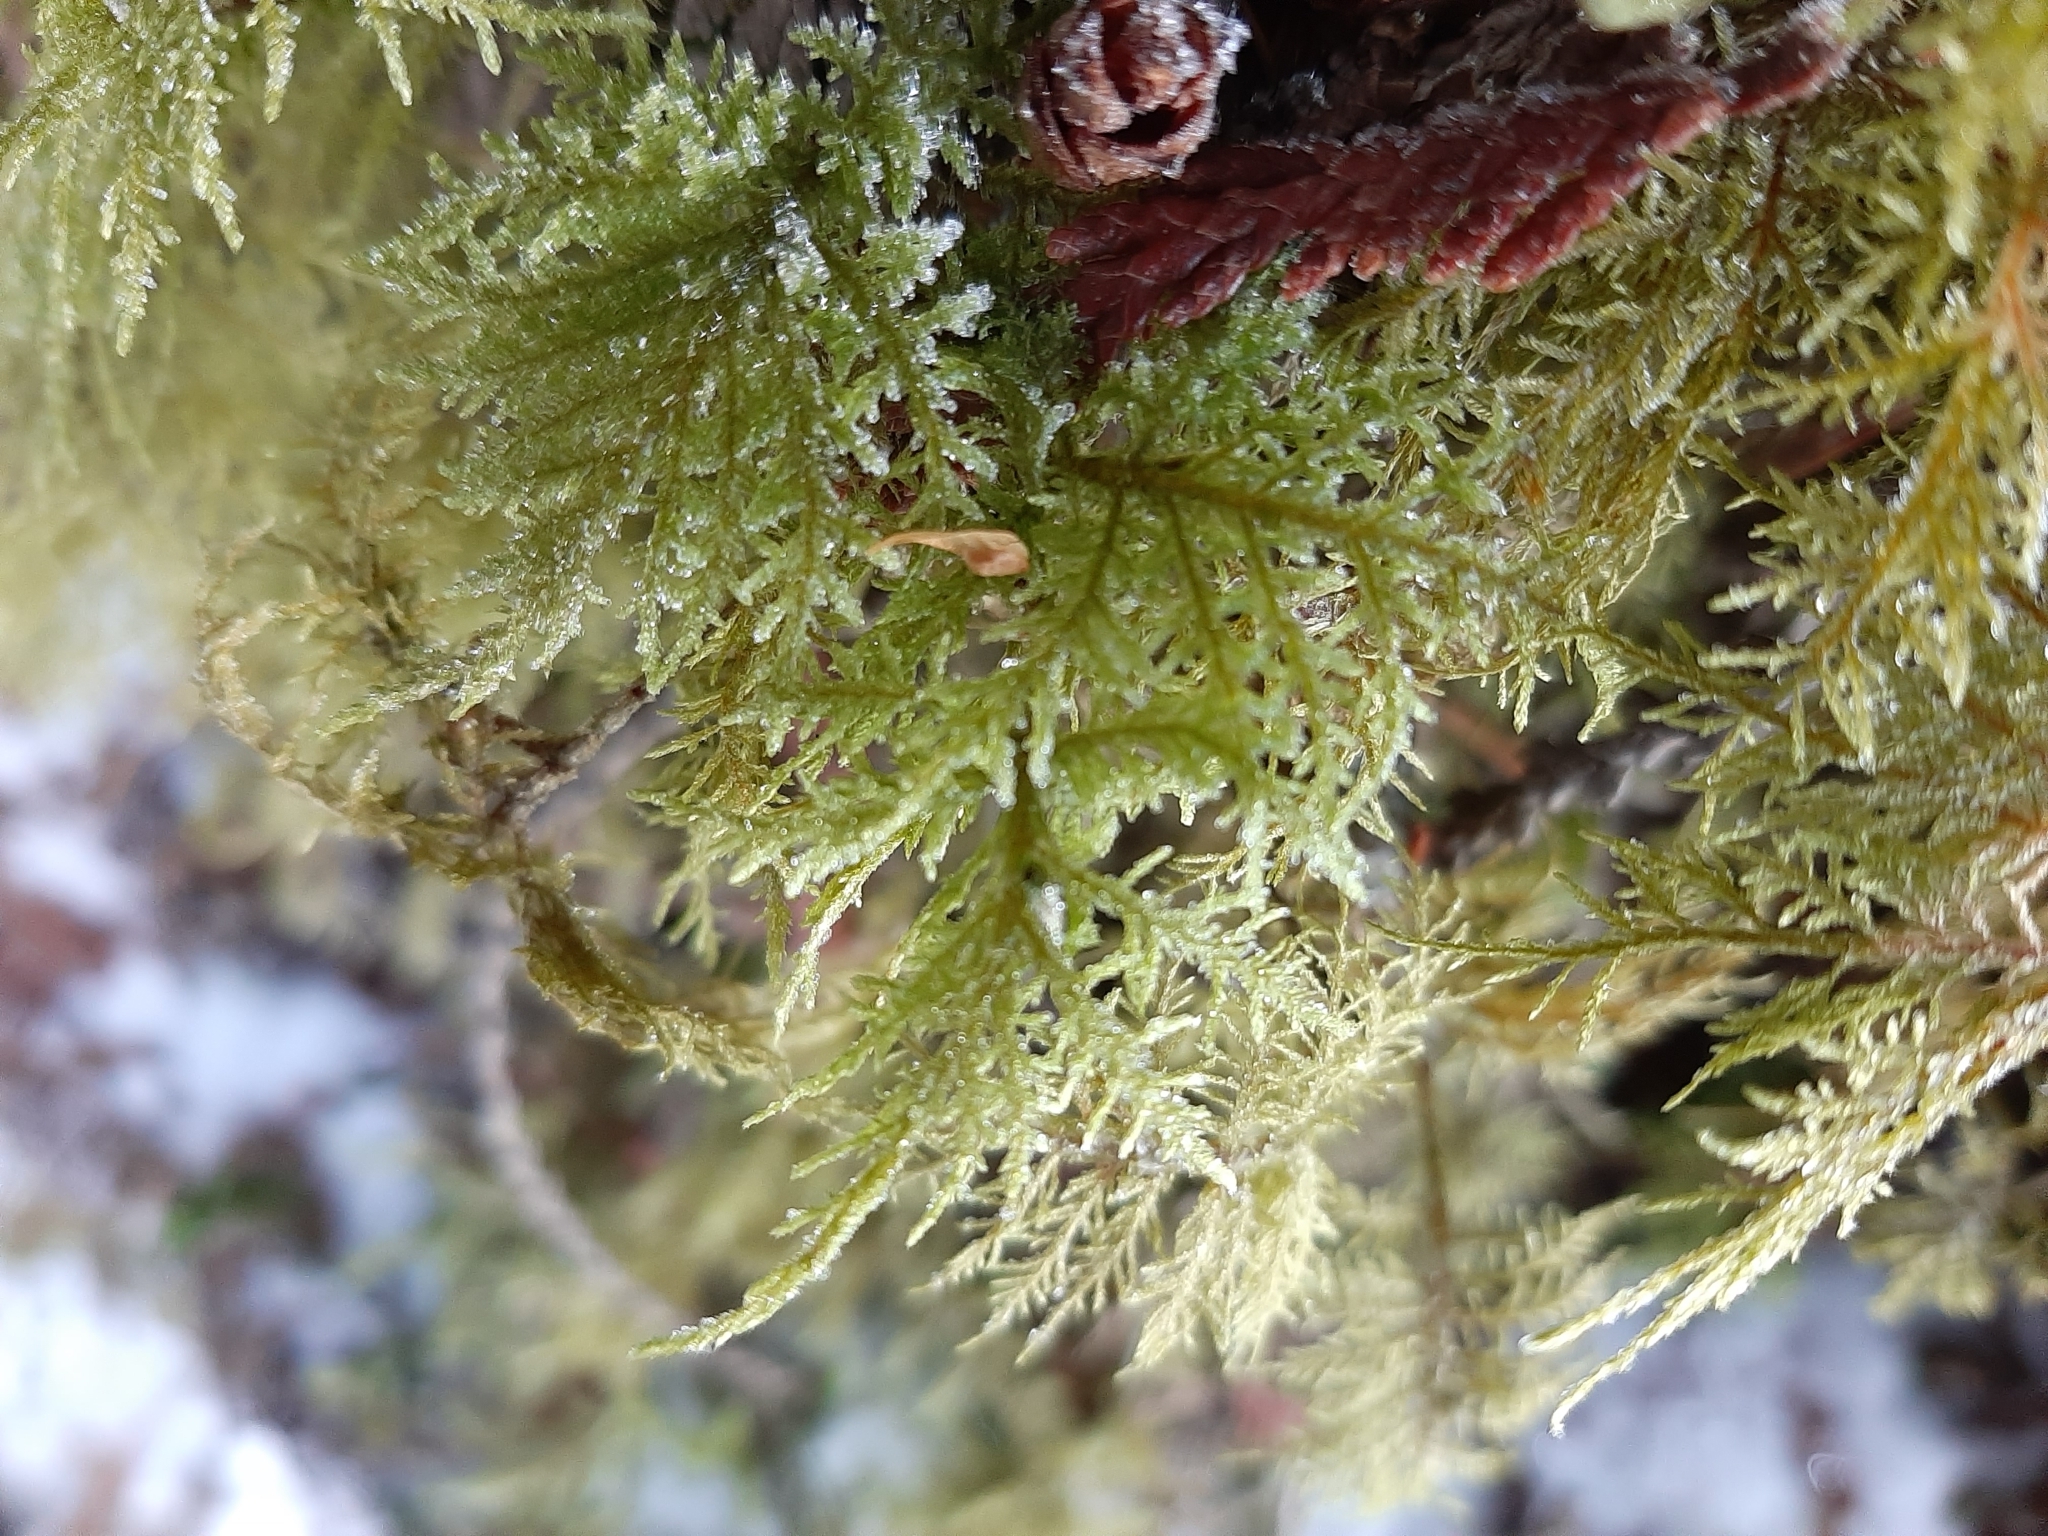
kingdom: Plantae
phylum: Bryophyta
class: Bryopsida
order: Hypnales
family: Hylocomiaceae
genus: Hylocomium
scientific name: Hylocomium splendens
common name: Stairstep moss
